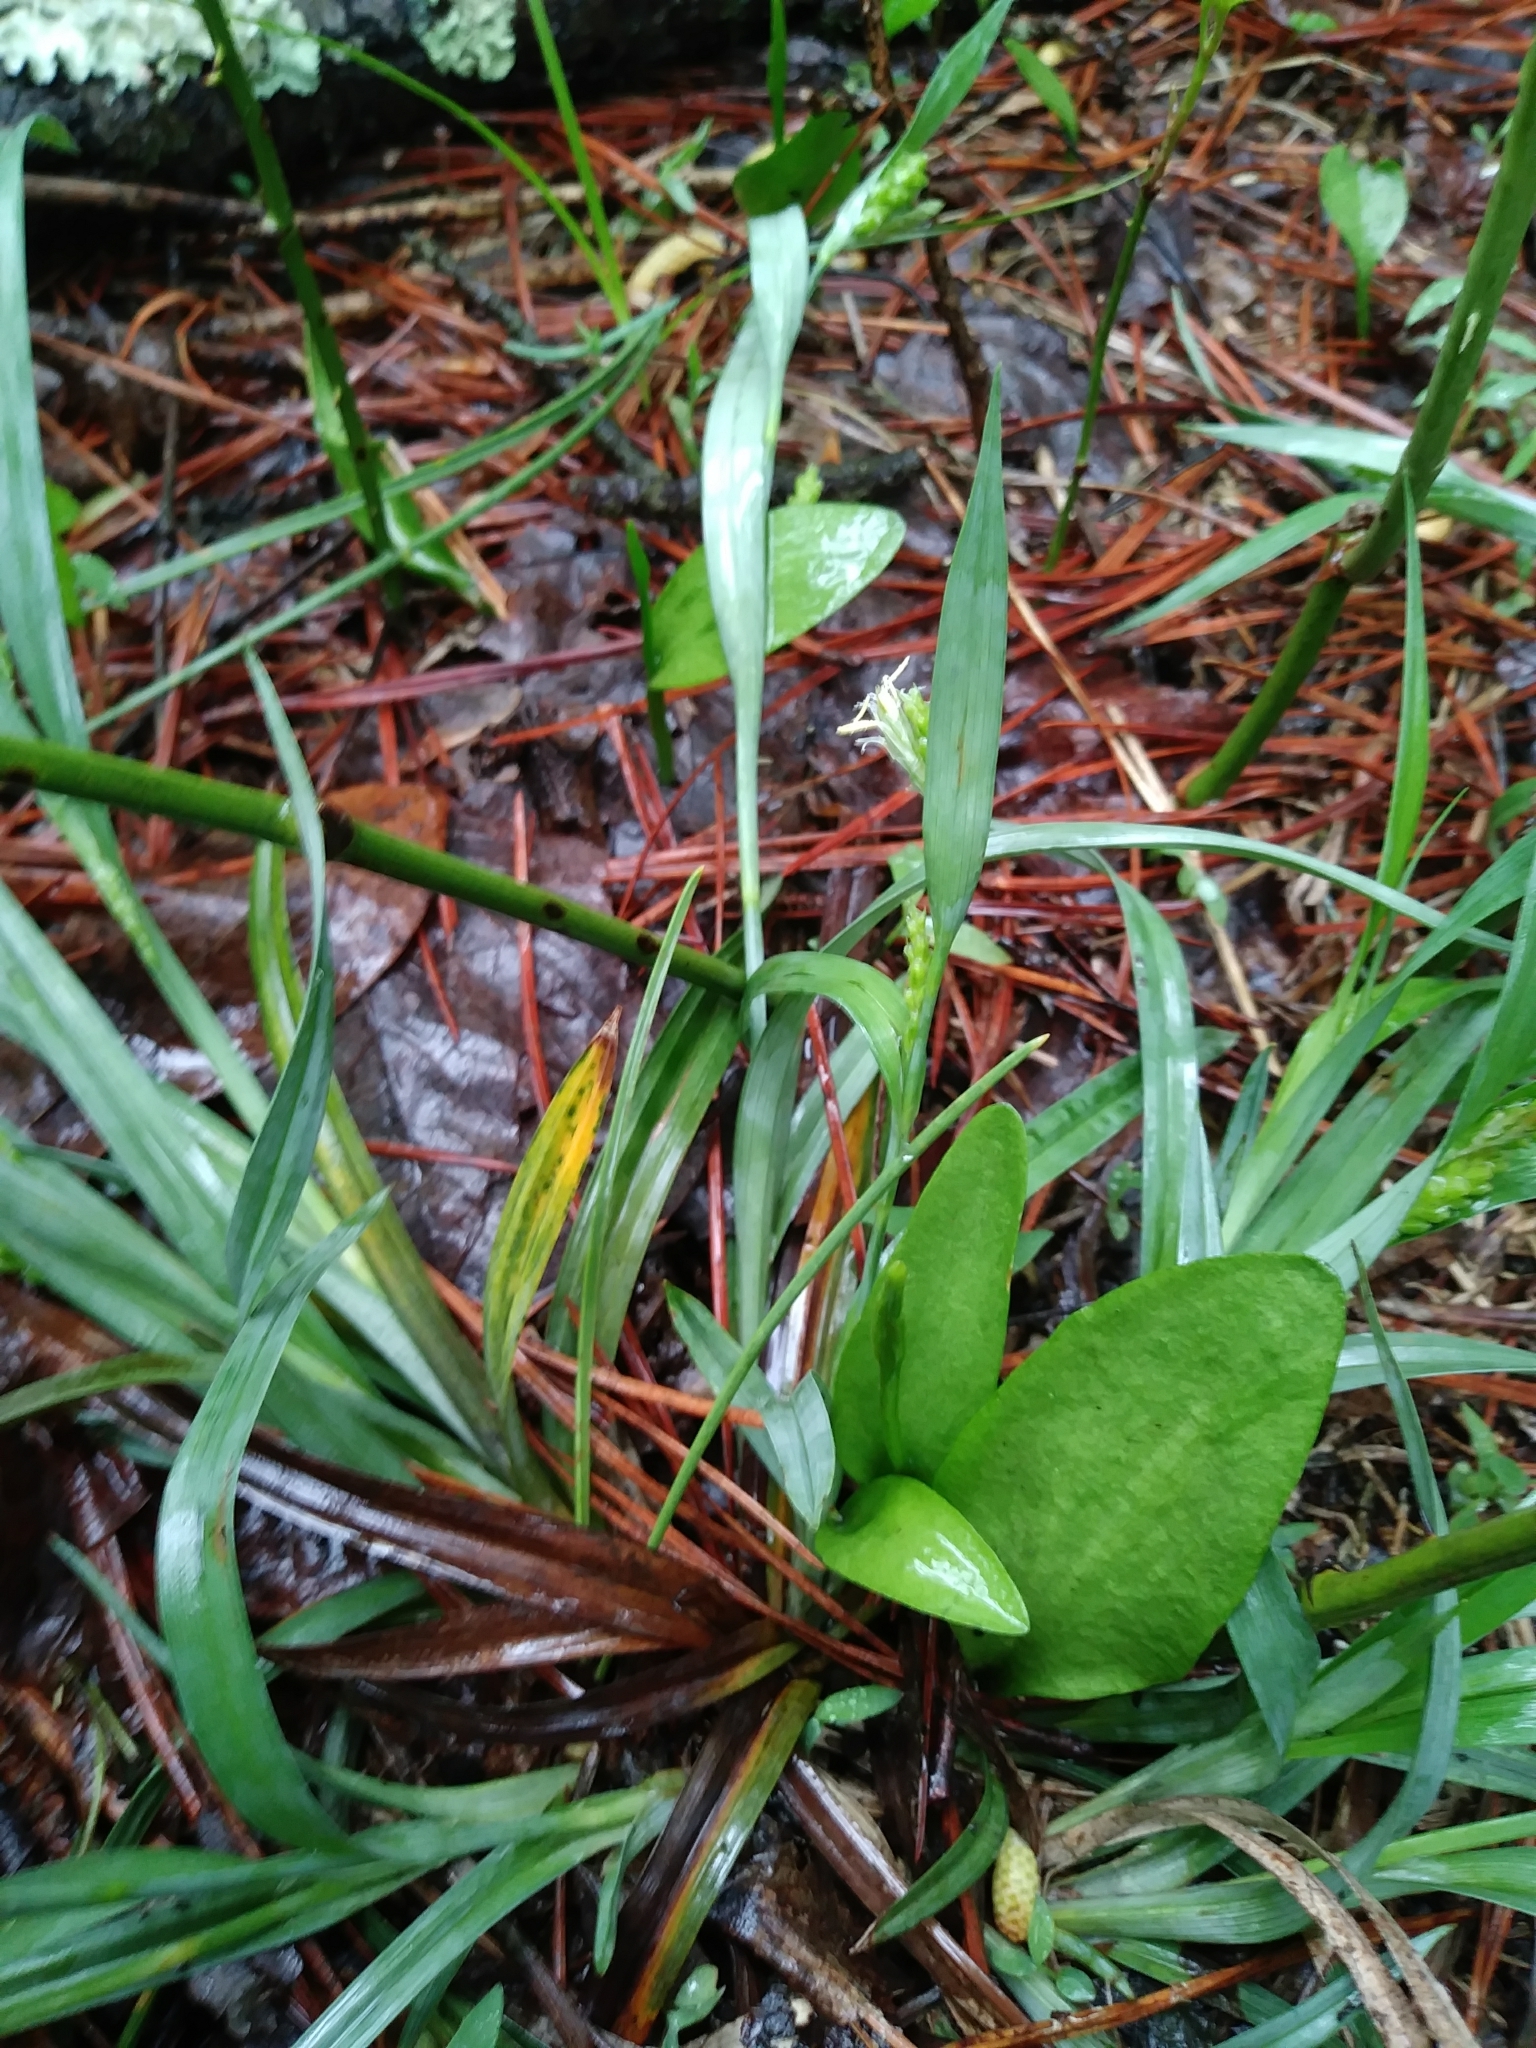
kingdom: Plantae
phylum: Tracheophyta
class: Polypodiopsida
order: Ophioglossales
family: Ophioglossaceae
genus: Ophioglossum
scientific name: Ophioglossum vulgatum
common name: Adder's-tongue
